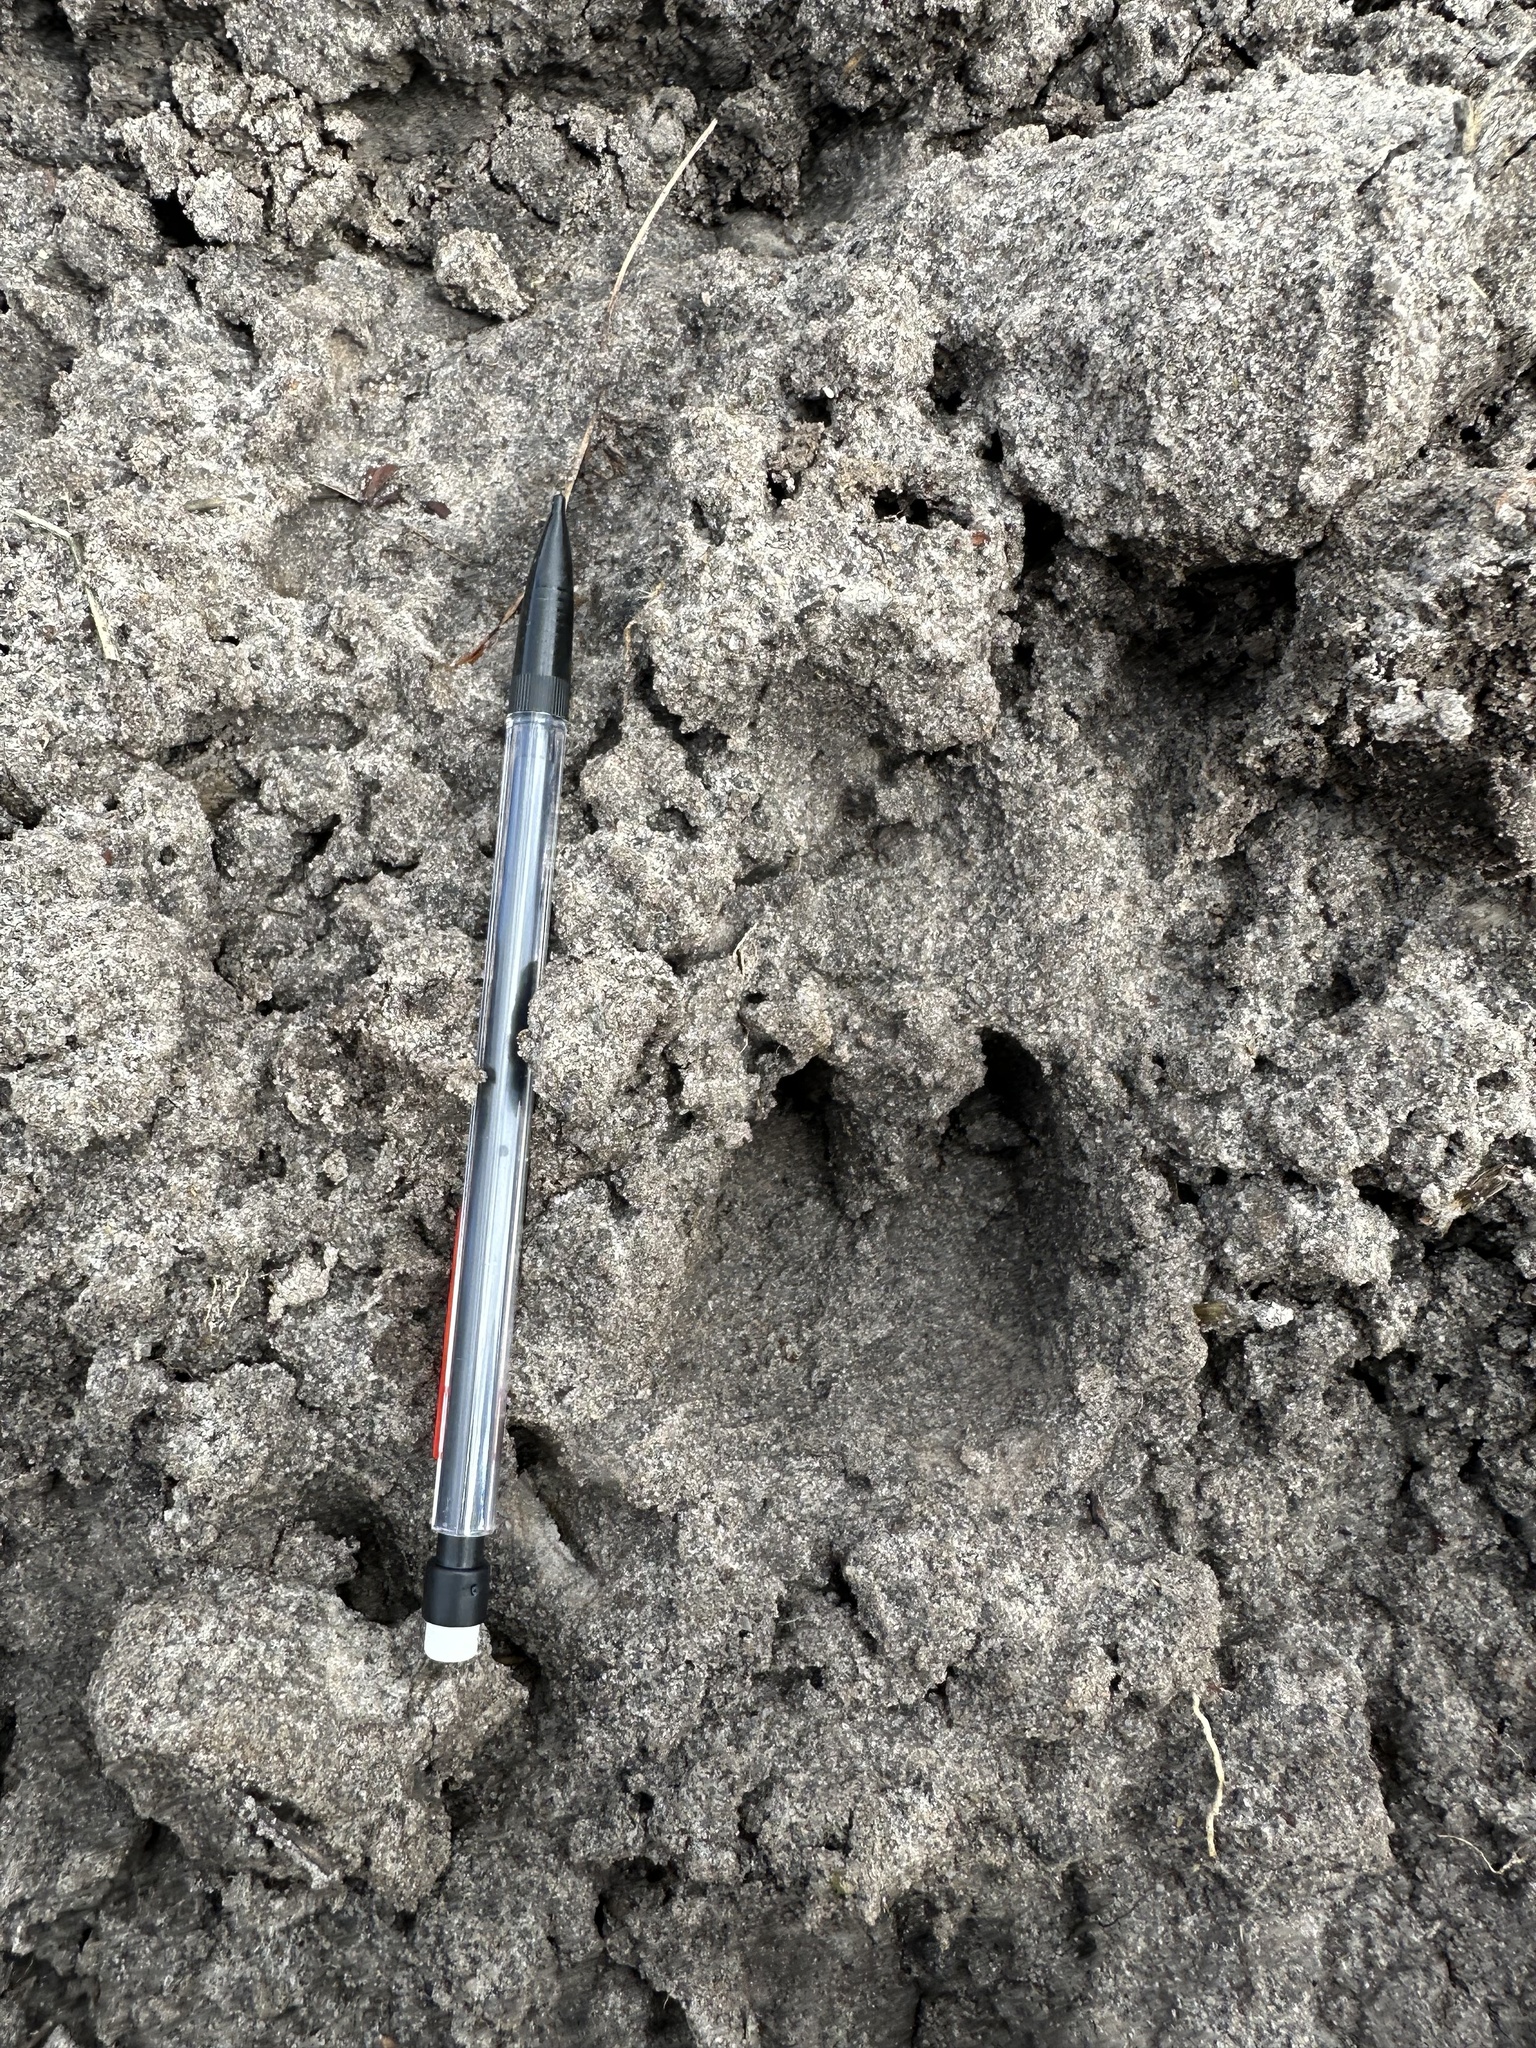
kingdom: Animalia
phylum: Chordata
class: Mammalia
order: Artiodactyla
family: Cervidae
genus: Odocoileus
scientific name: Odocoileus virginianus
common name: White-tailed deer
